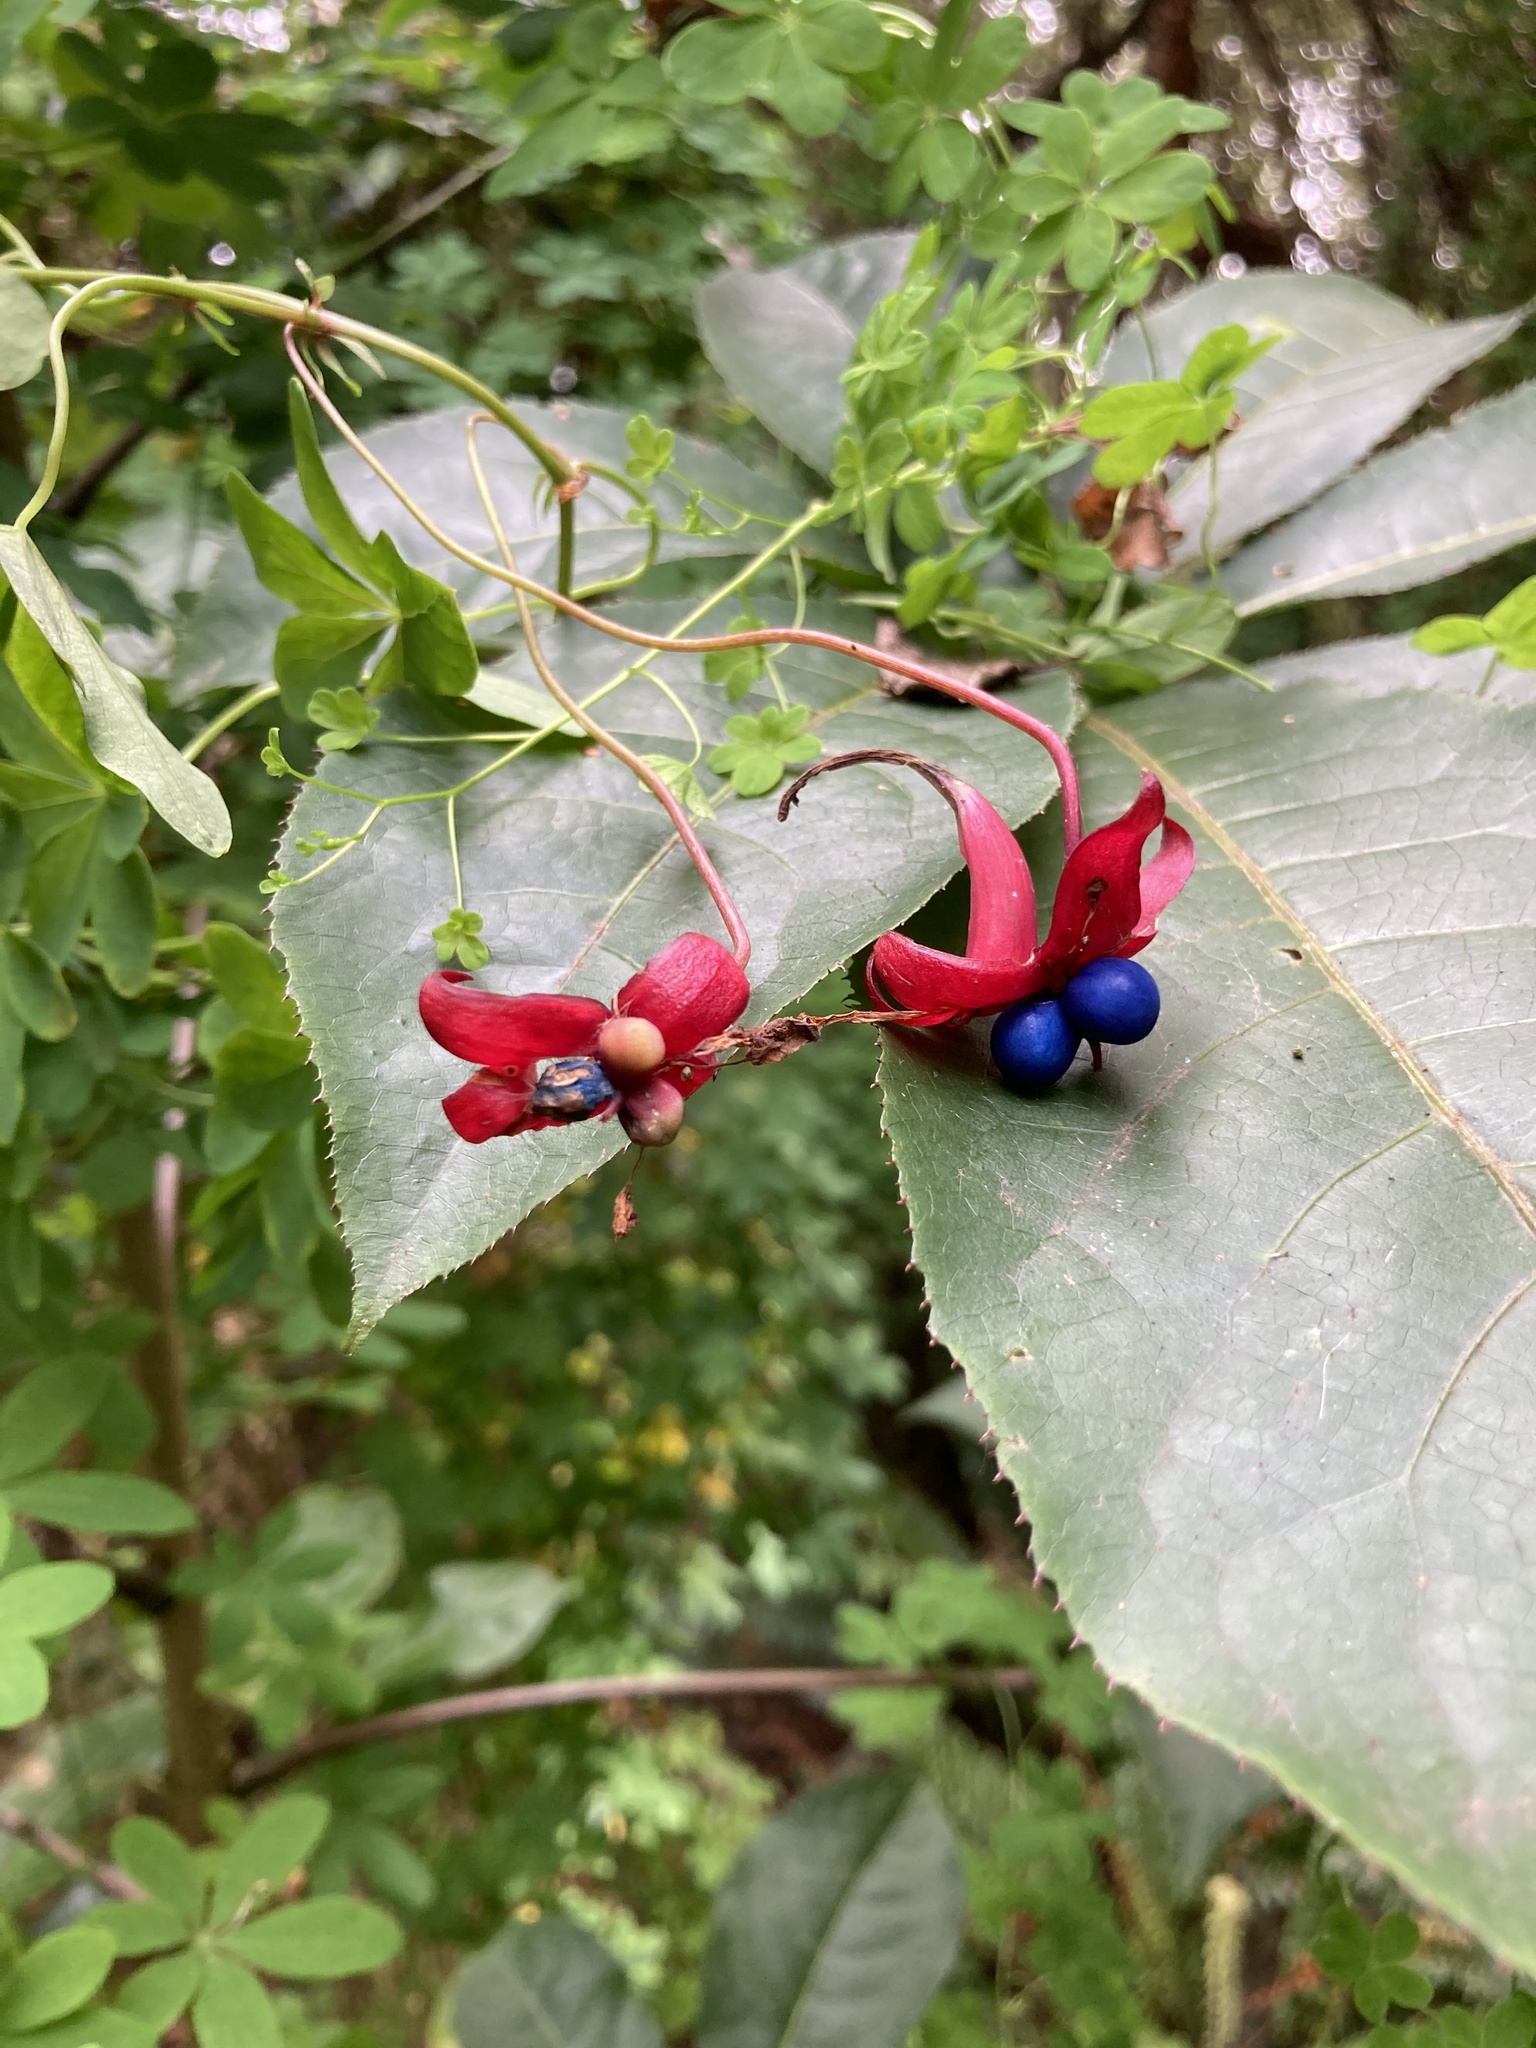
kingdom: Plantae
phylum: Tracheophyta
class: Magnoliopsida
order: Brassicales
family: Tropaeolaceae
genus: Tropaeolum
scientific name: Tropaeolum speciosum
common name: Flame nasturtium
